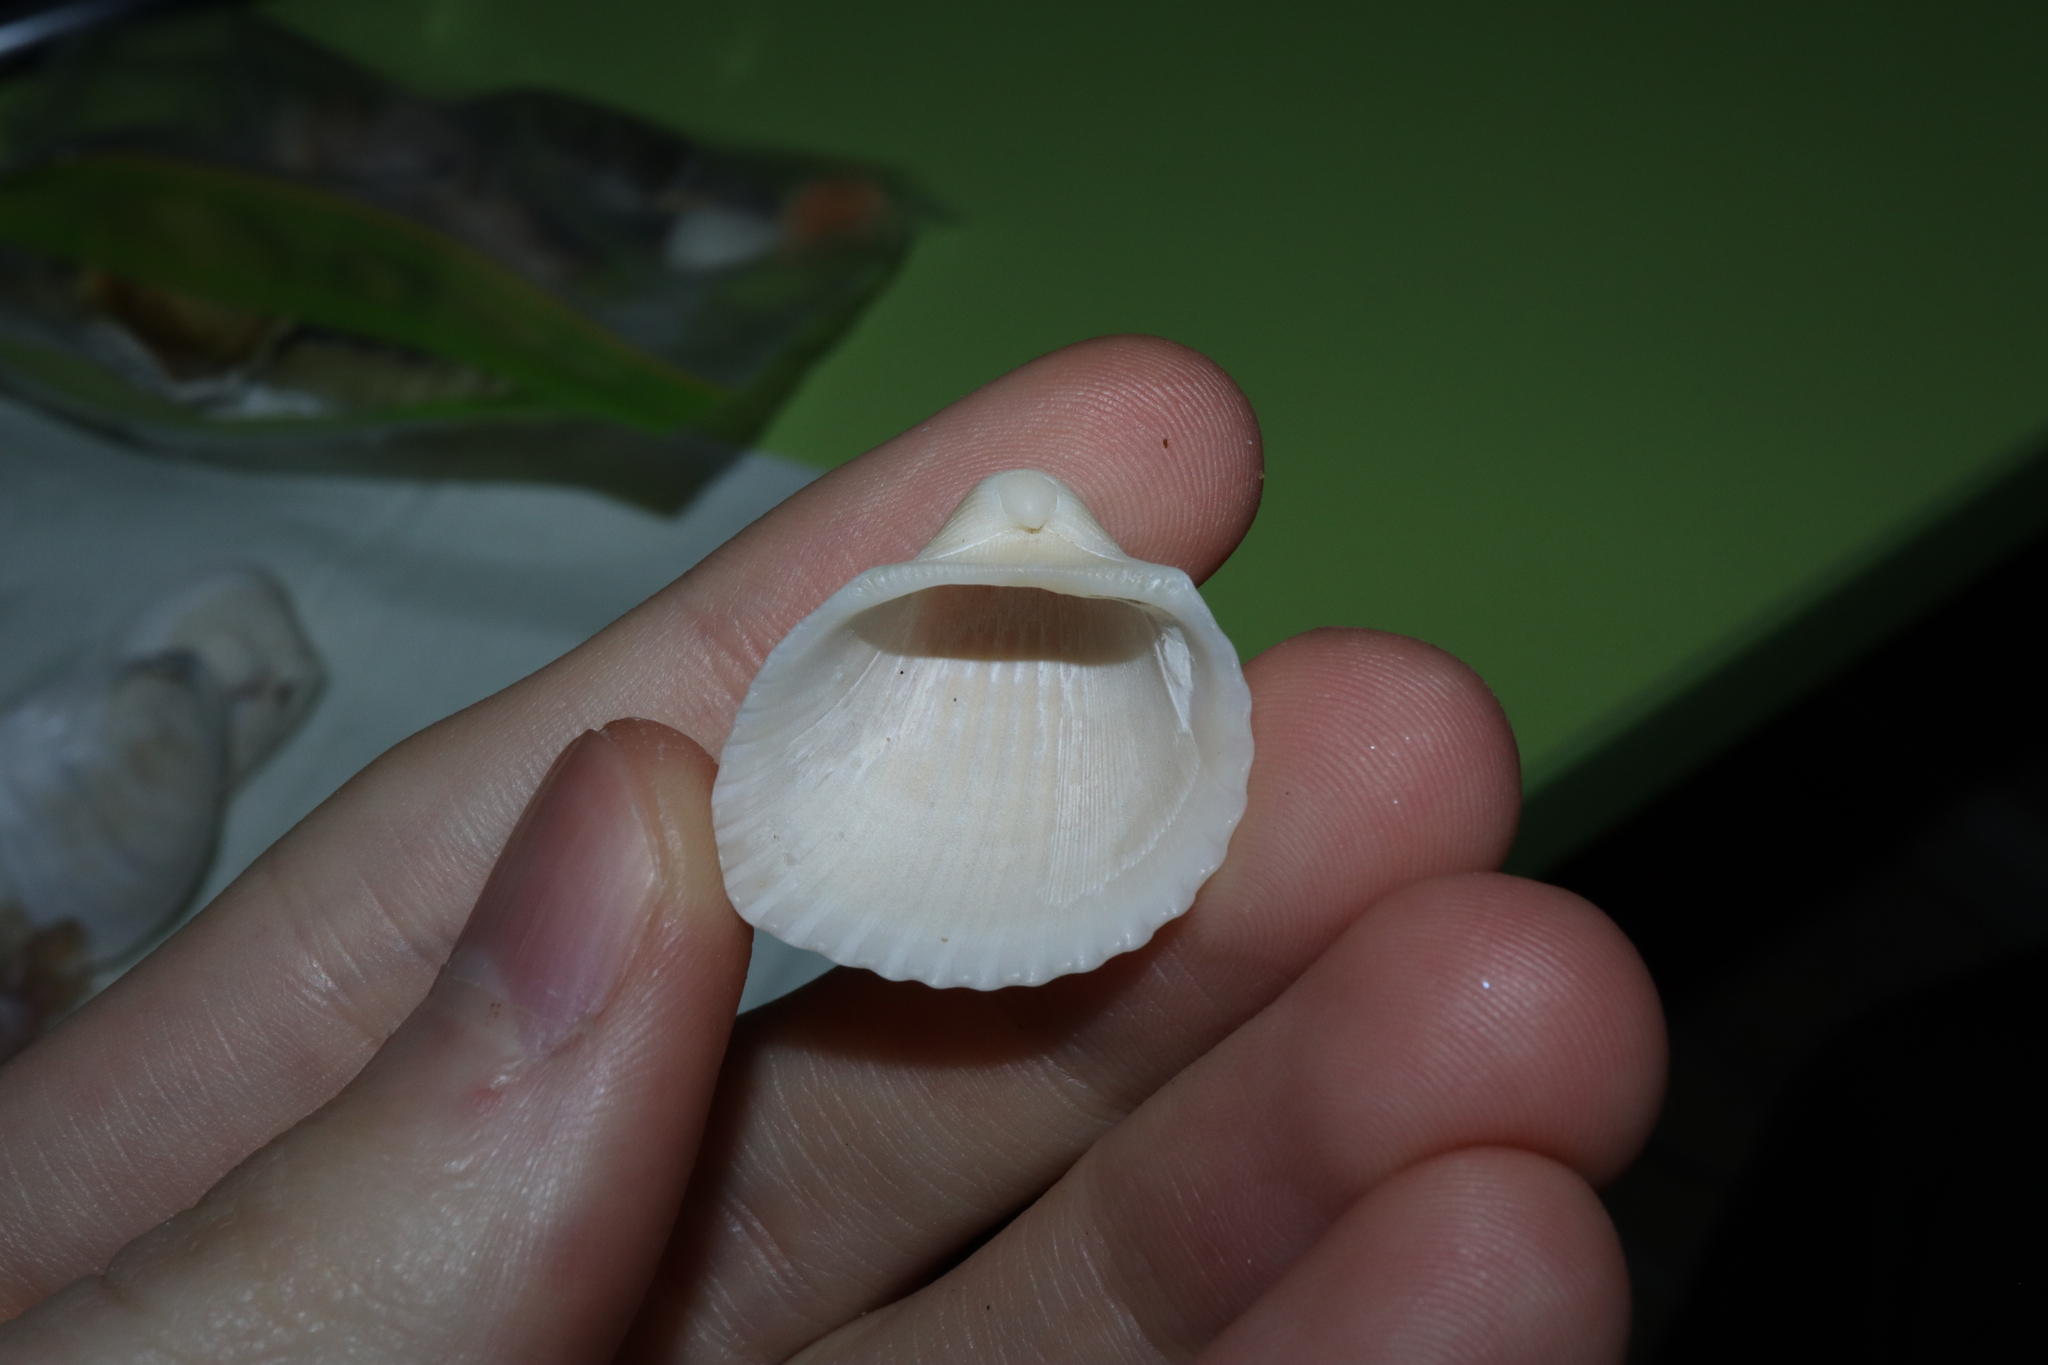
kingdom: Animalia
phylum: Mollusca
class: Bivalvia
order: Arcida
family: Arcidae
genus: Anadara
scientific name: Anadara pilula
